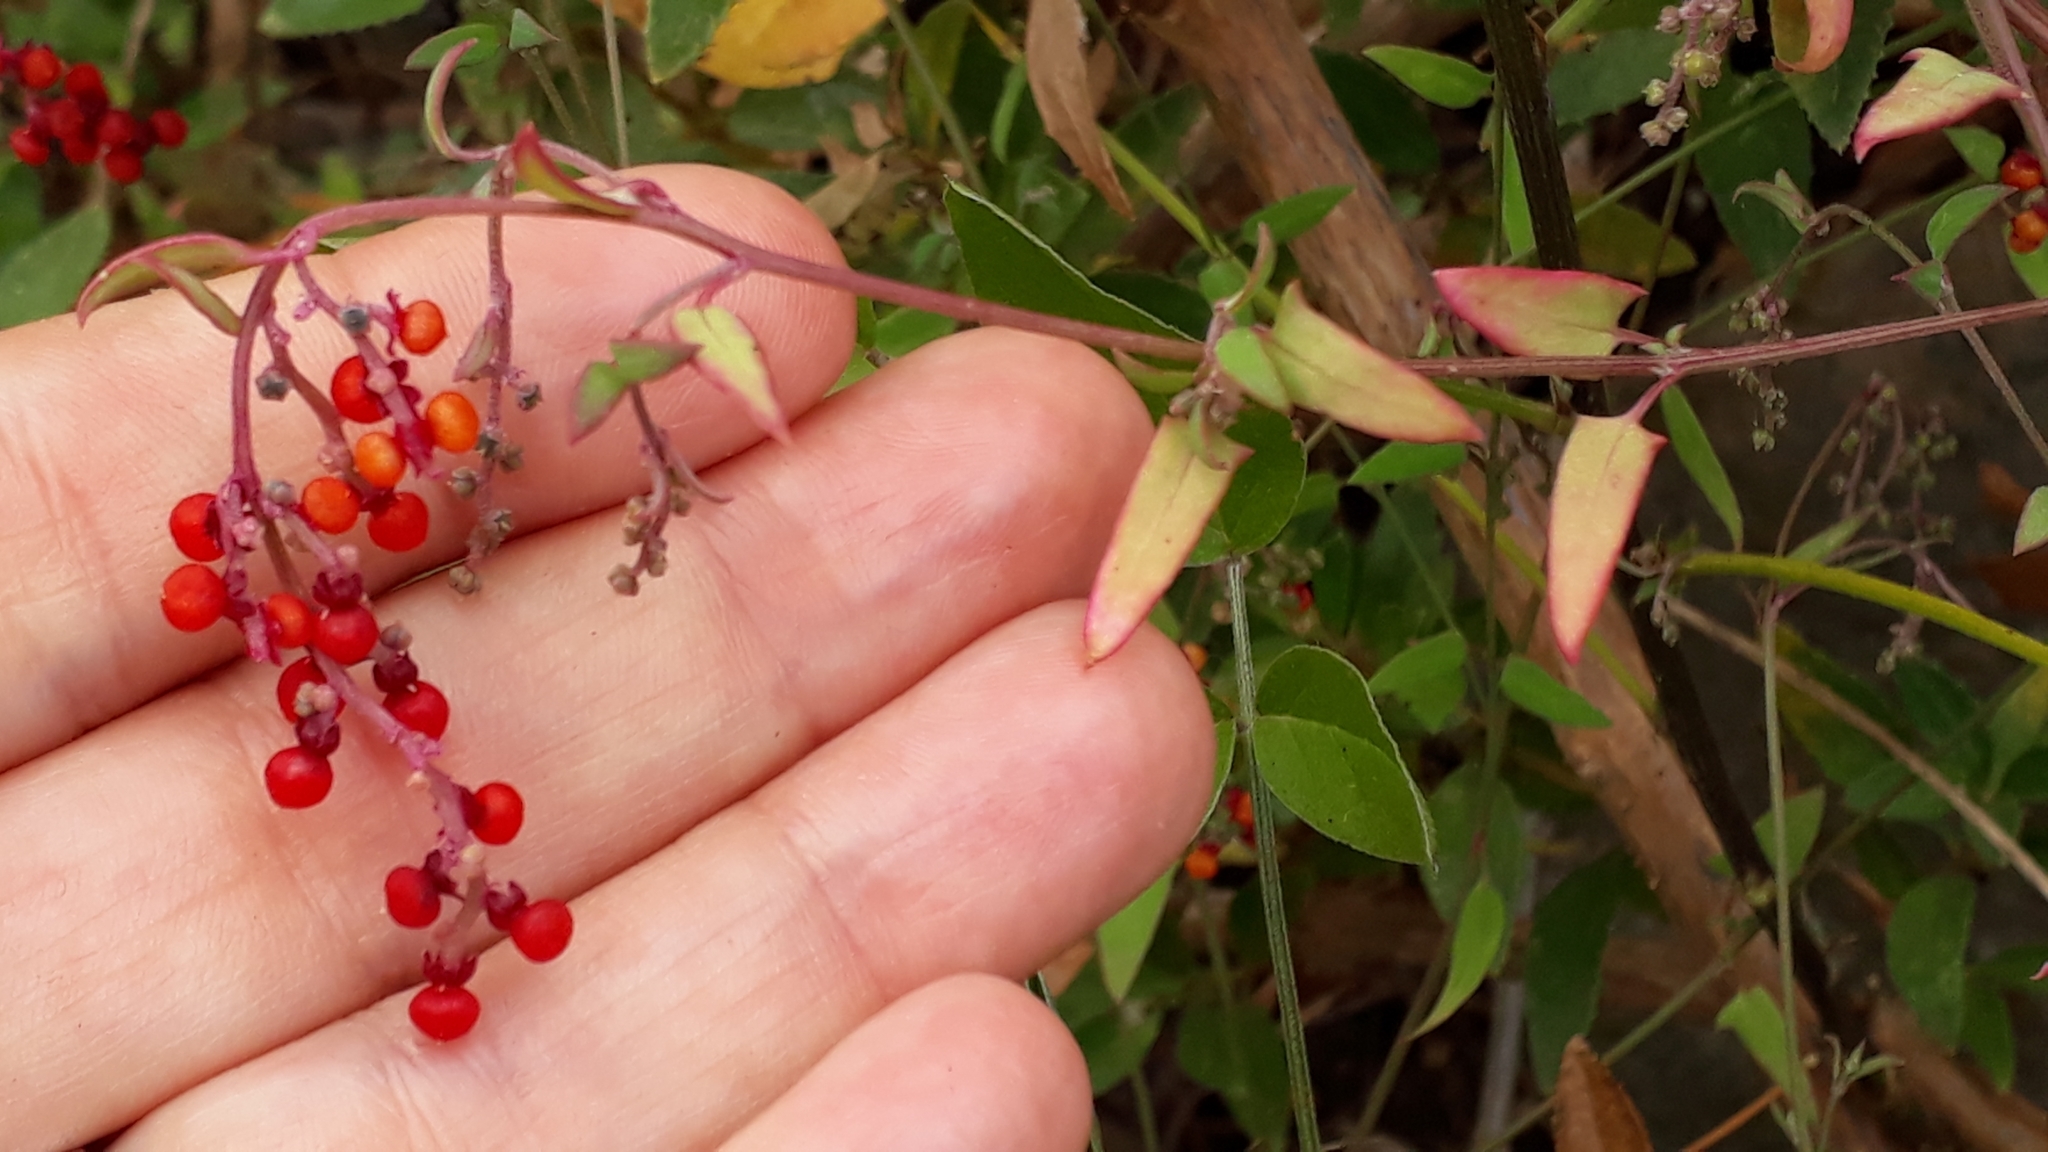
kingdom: Plantae
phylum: Tracheophyta
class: Magnoliopsida
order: Caryophyllales
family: Amaranthaceae
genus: Chenopodium
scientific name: Chenopodium nutans
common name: Climbing-saltbush
